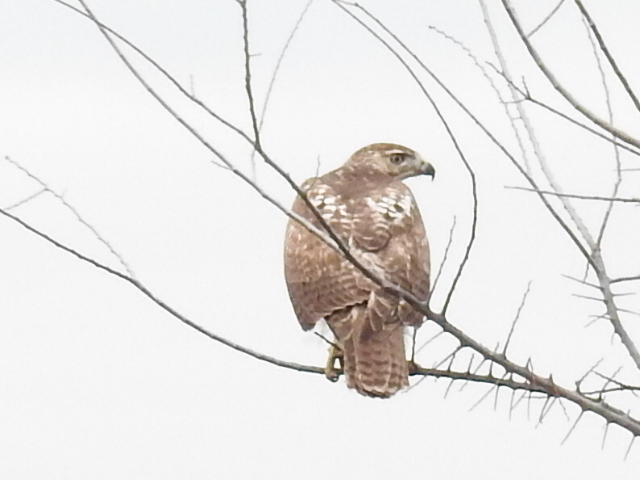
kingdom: Animalia
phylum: Chordata
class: Aves
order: Accipitriformes
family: Accipitridae
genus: Buteo
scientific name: Buteo jamaicensis
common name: Red-tailed hawk
